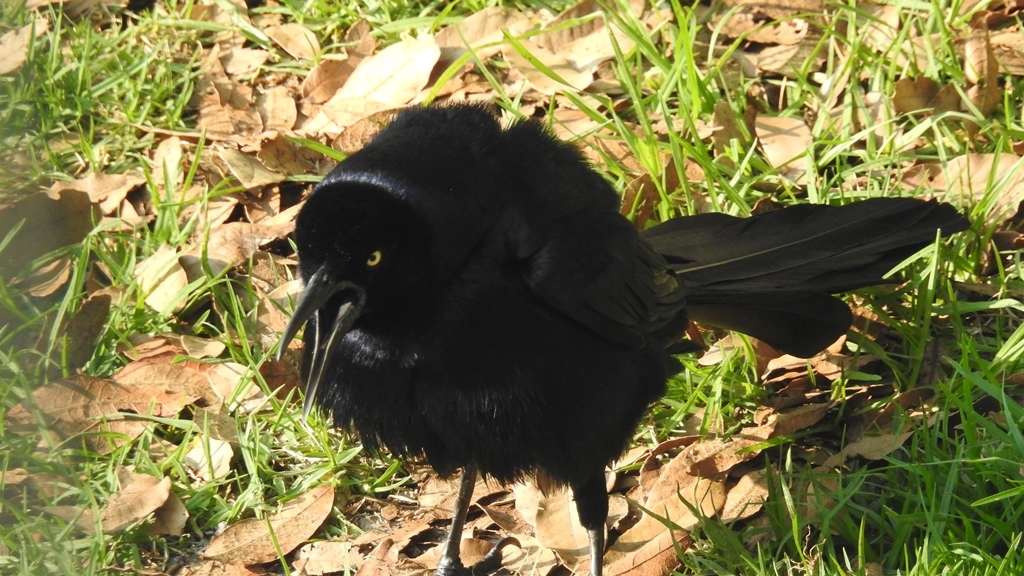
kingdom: Animalia
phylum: Chordata
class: Aves
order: Passeriformes
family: Icteridae
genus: Quiscalus
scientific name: Quiscalus mexicanus
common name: Great-tailed grackle
